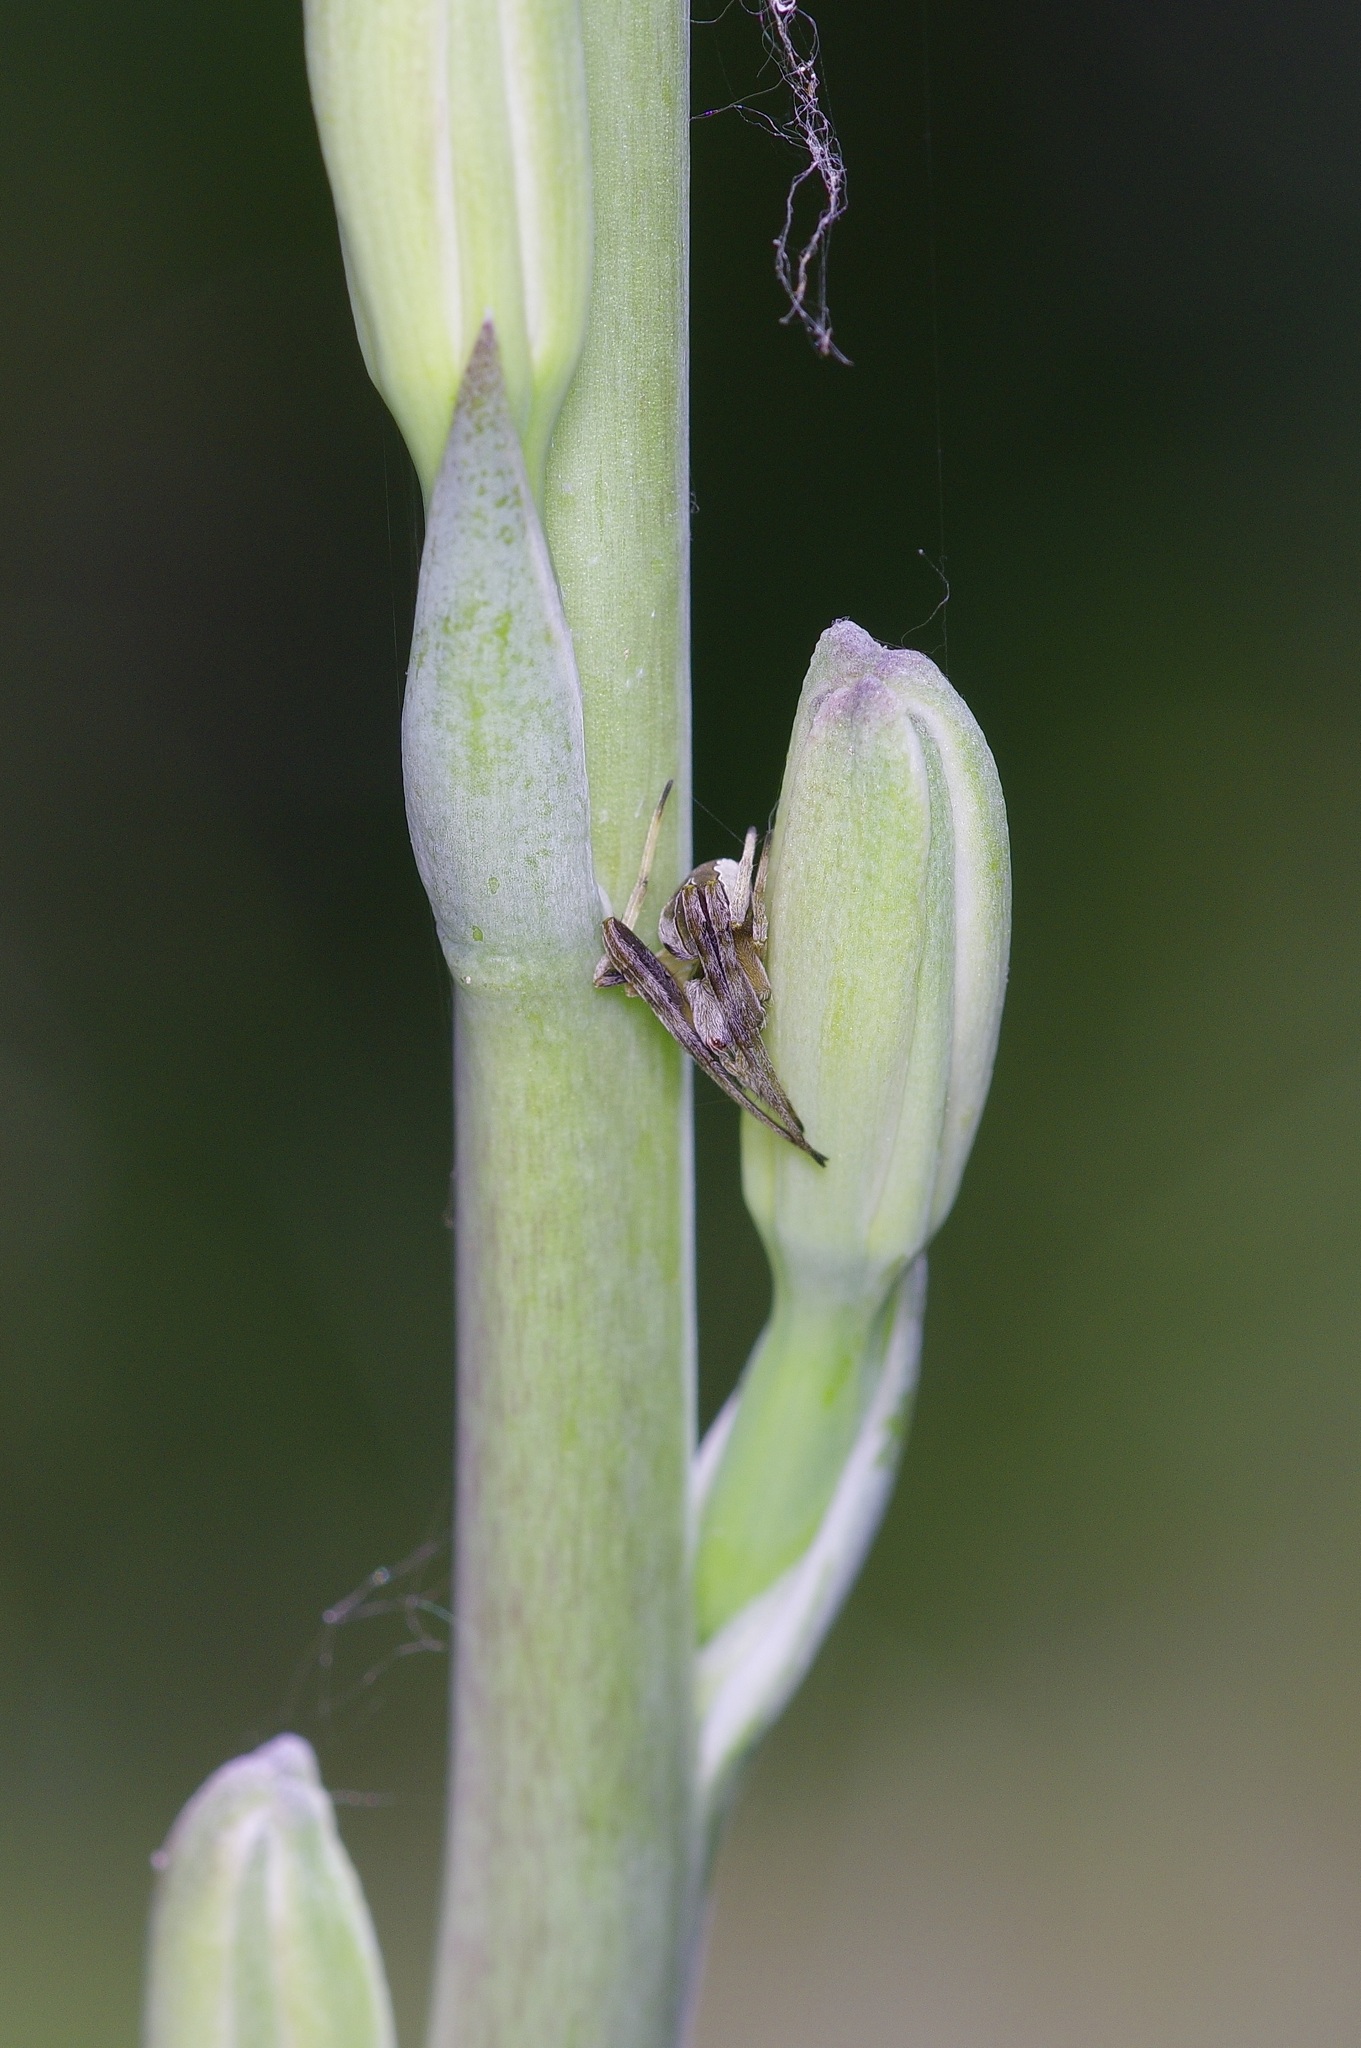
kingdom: Animalia
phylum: Arthropoda
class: Arachnida
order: Araneae
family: Araneidae
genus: Acacesia
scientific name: Acacesia hamata
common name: Orb weavers
